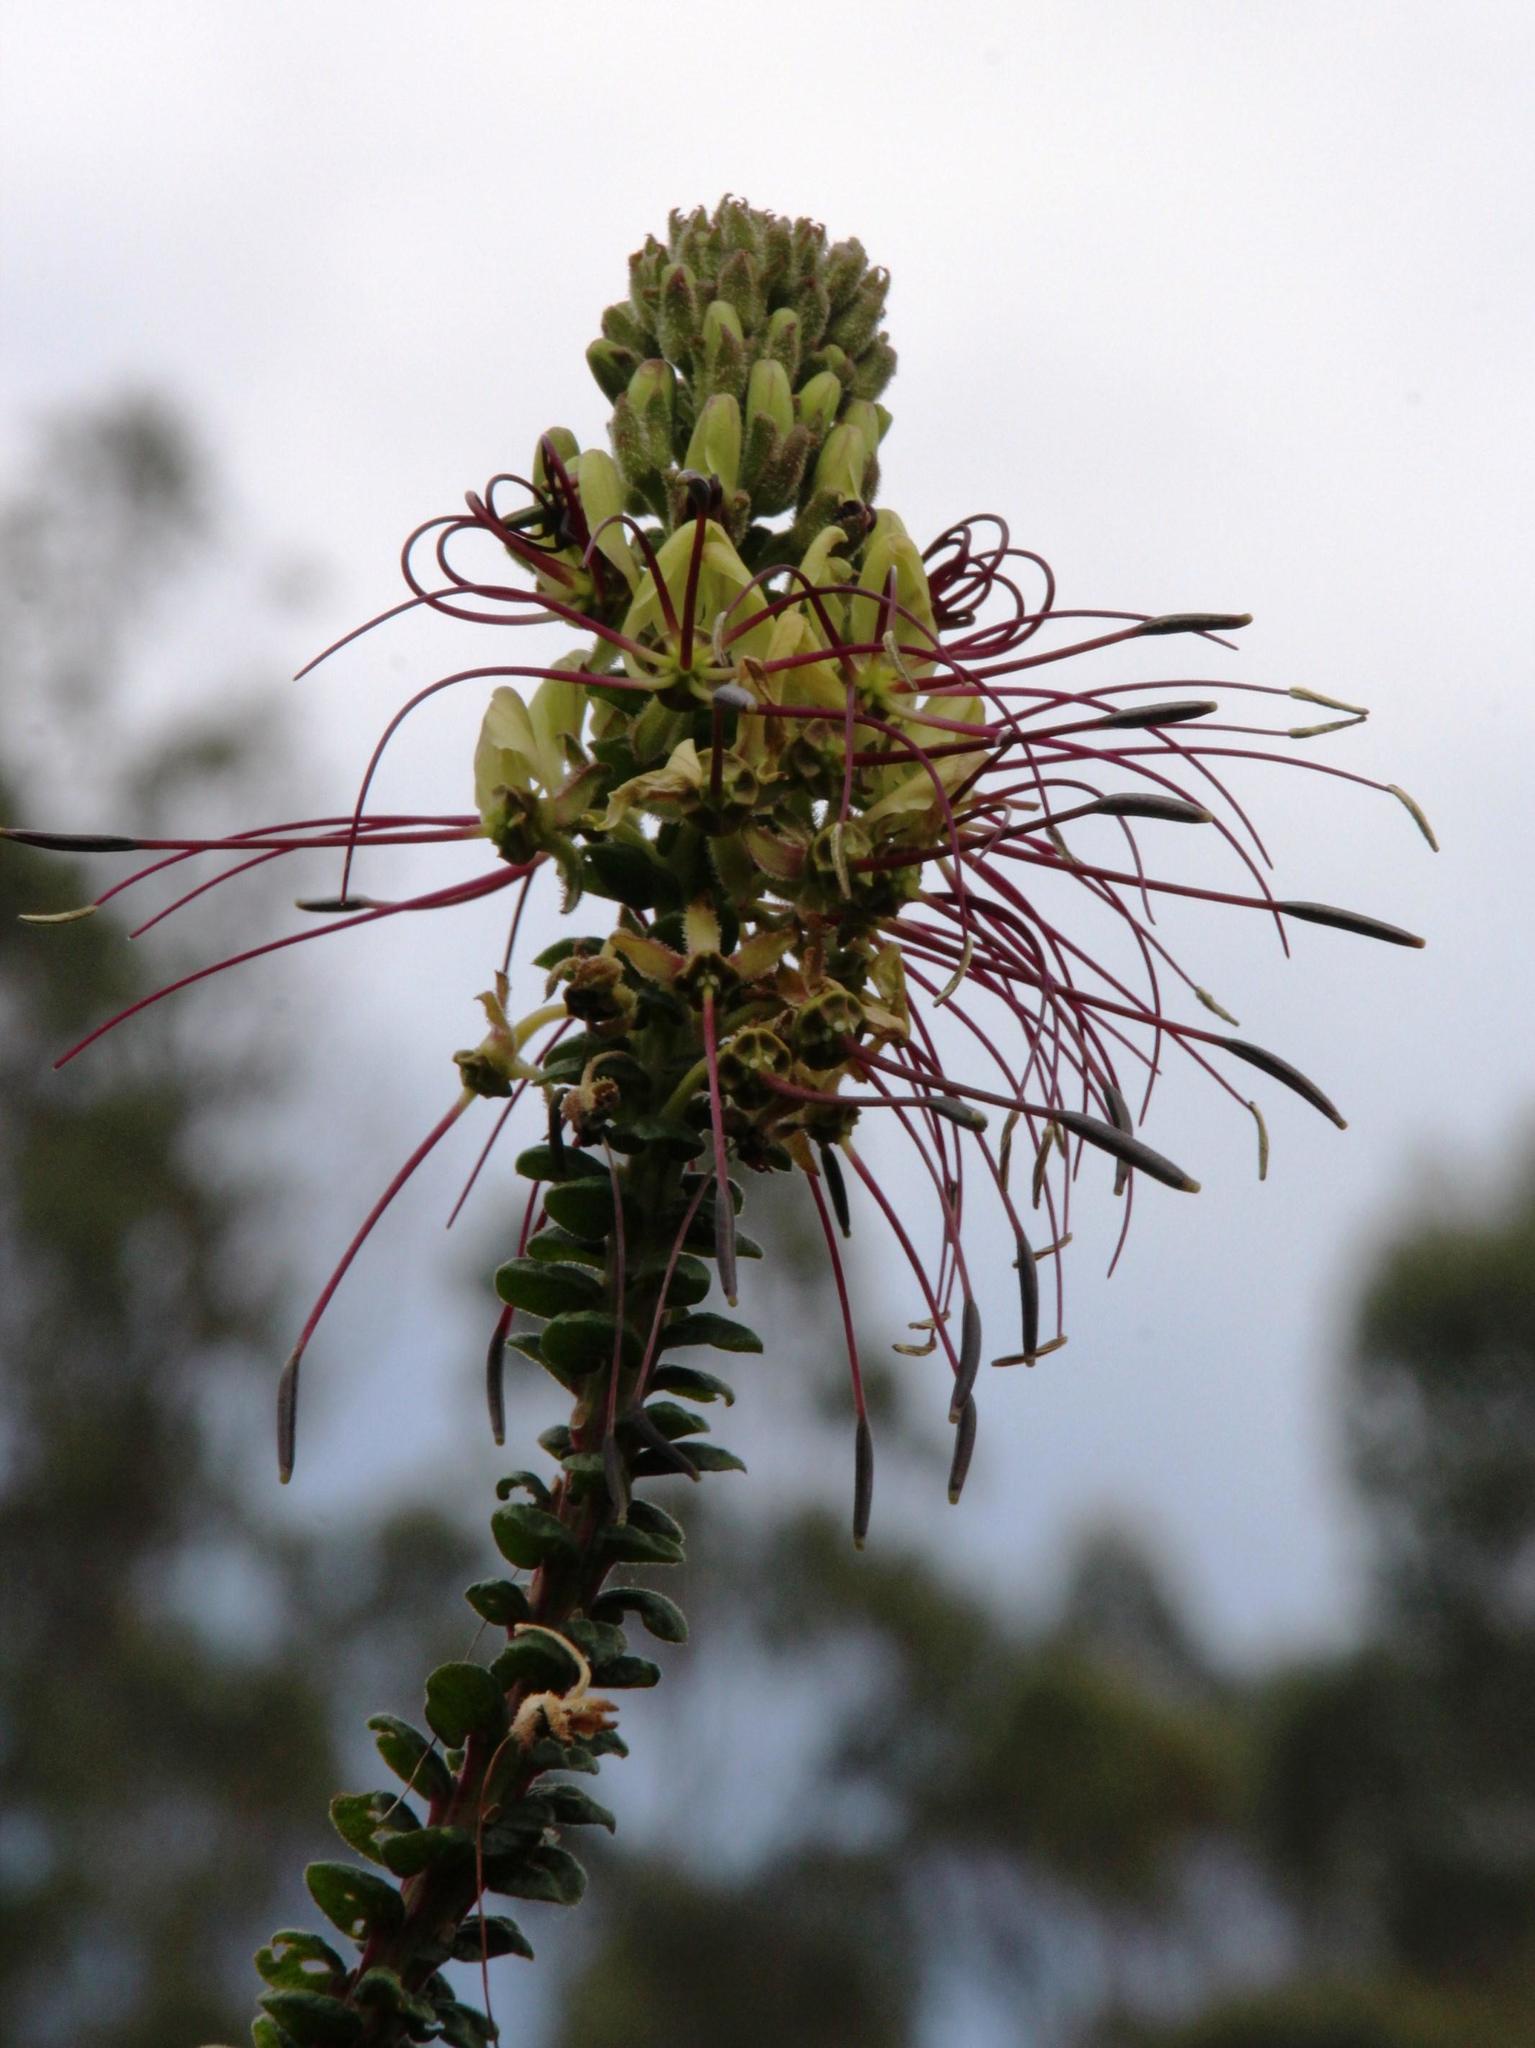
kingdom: Plantae
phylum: Tracheophyta
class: Magnoliopsida
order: Brassicales
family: Cleomaceae
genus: Andinocleome
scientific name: Andinocleome lechleri
